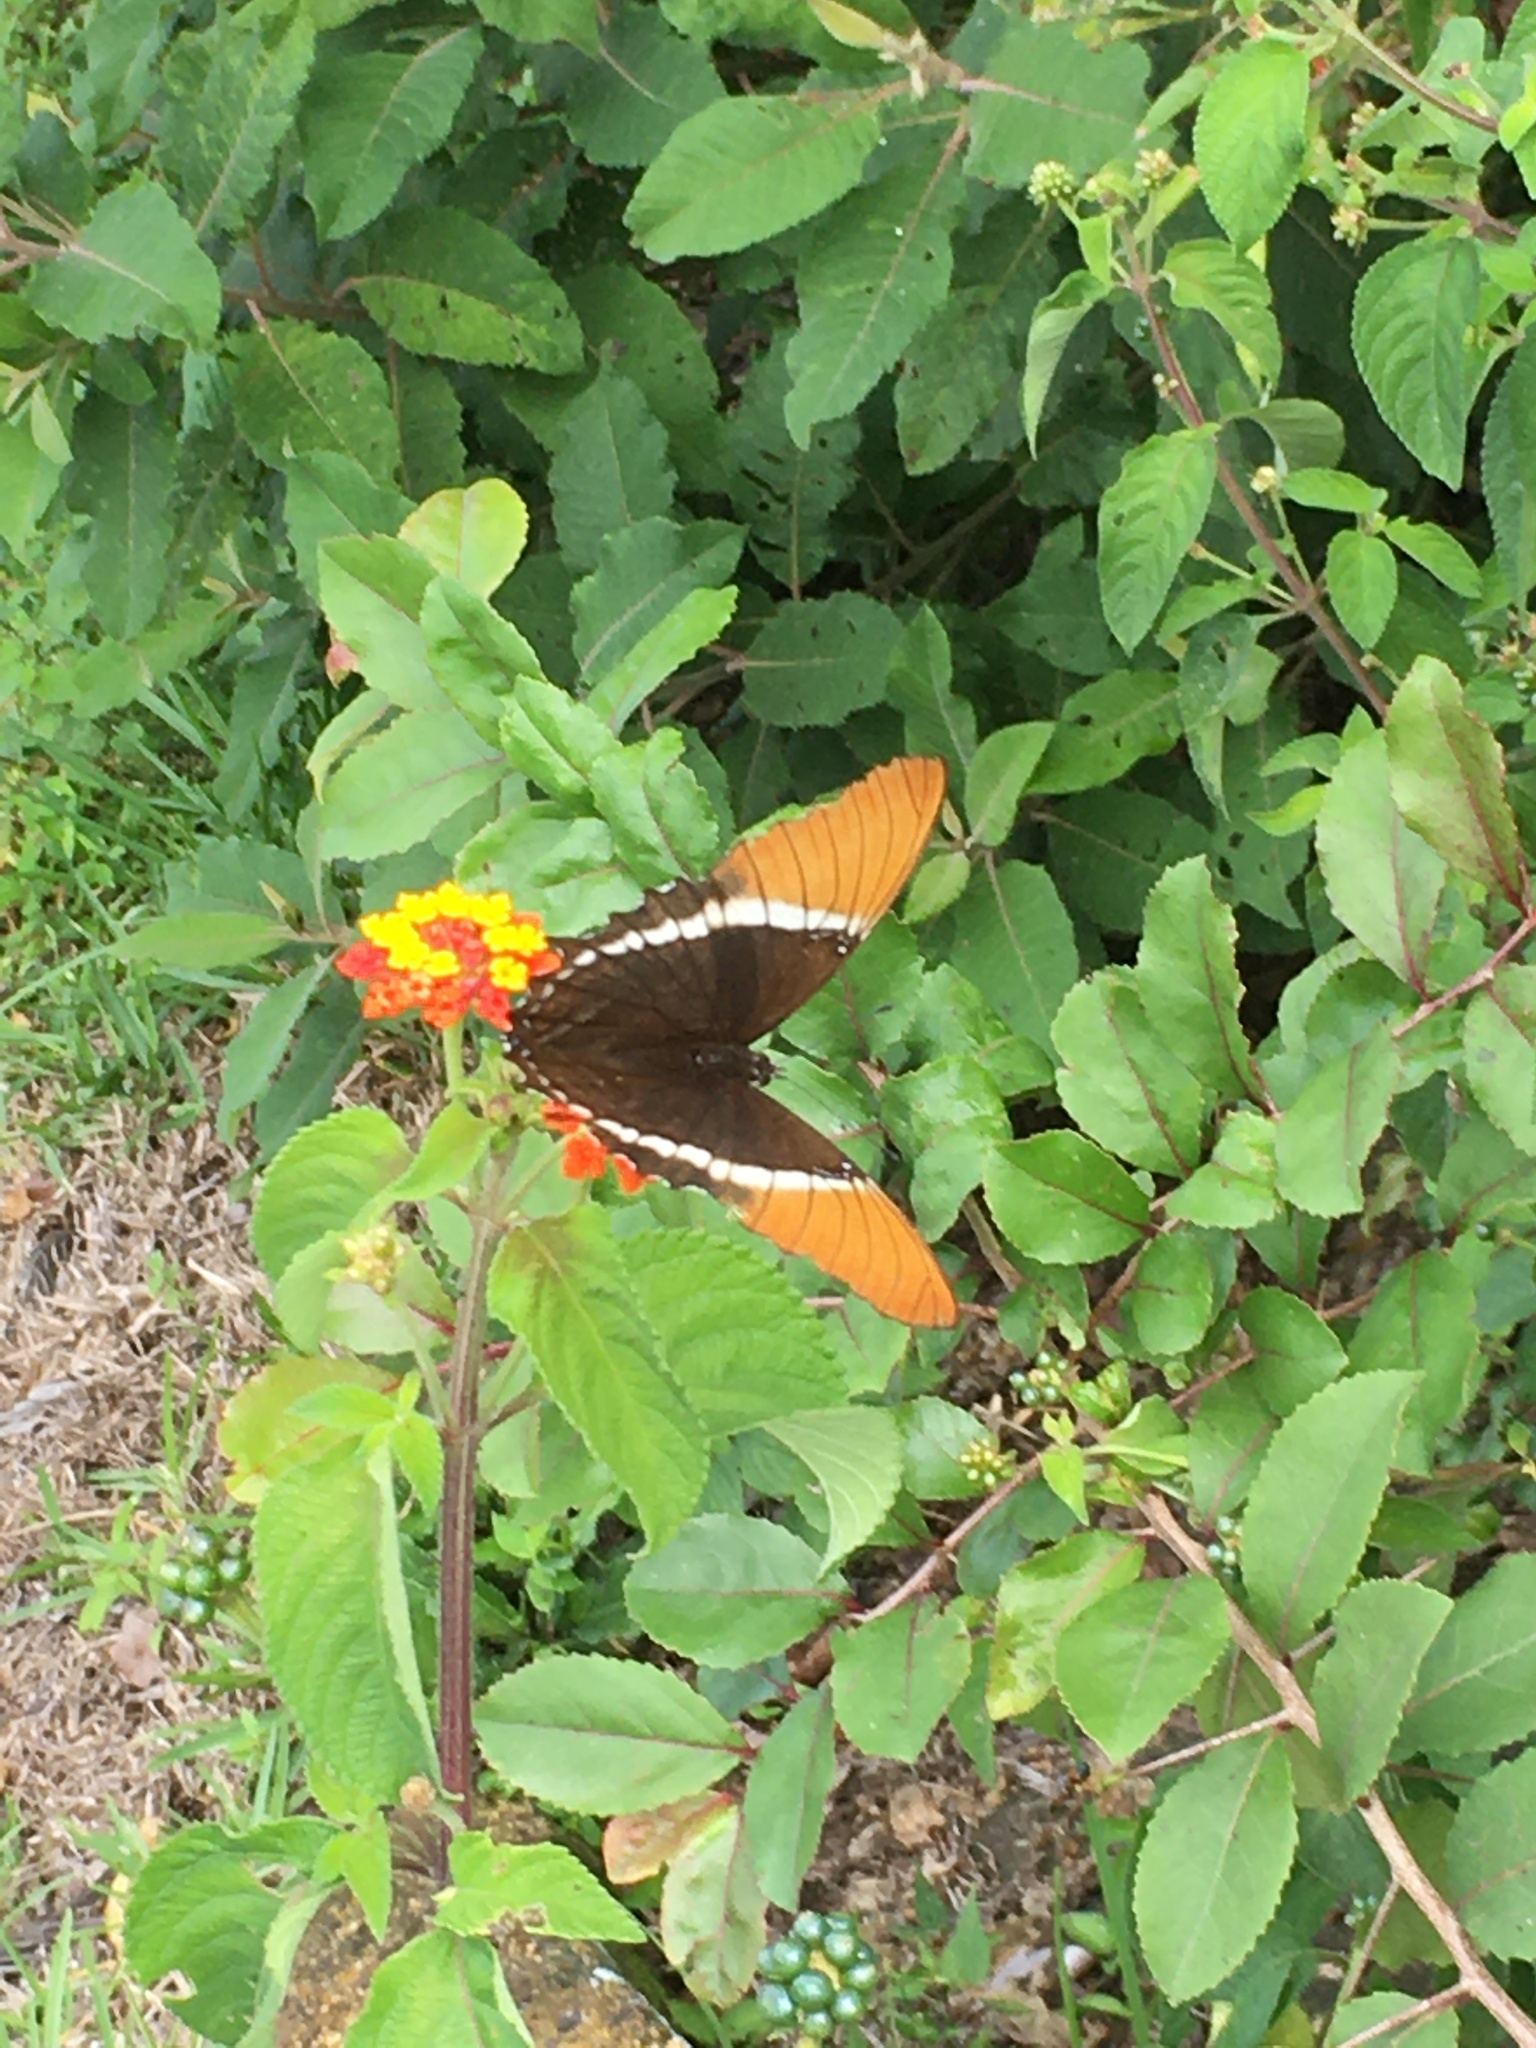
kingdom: Animalia
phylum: Arthropoda
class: Insecta
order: Lepidoptera
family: Nymphalidae
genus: Siproeta
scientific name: Siproeta epaphus
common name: Rusty-tipped page
